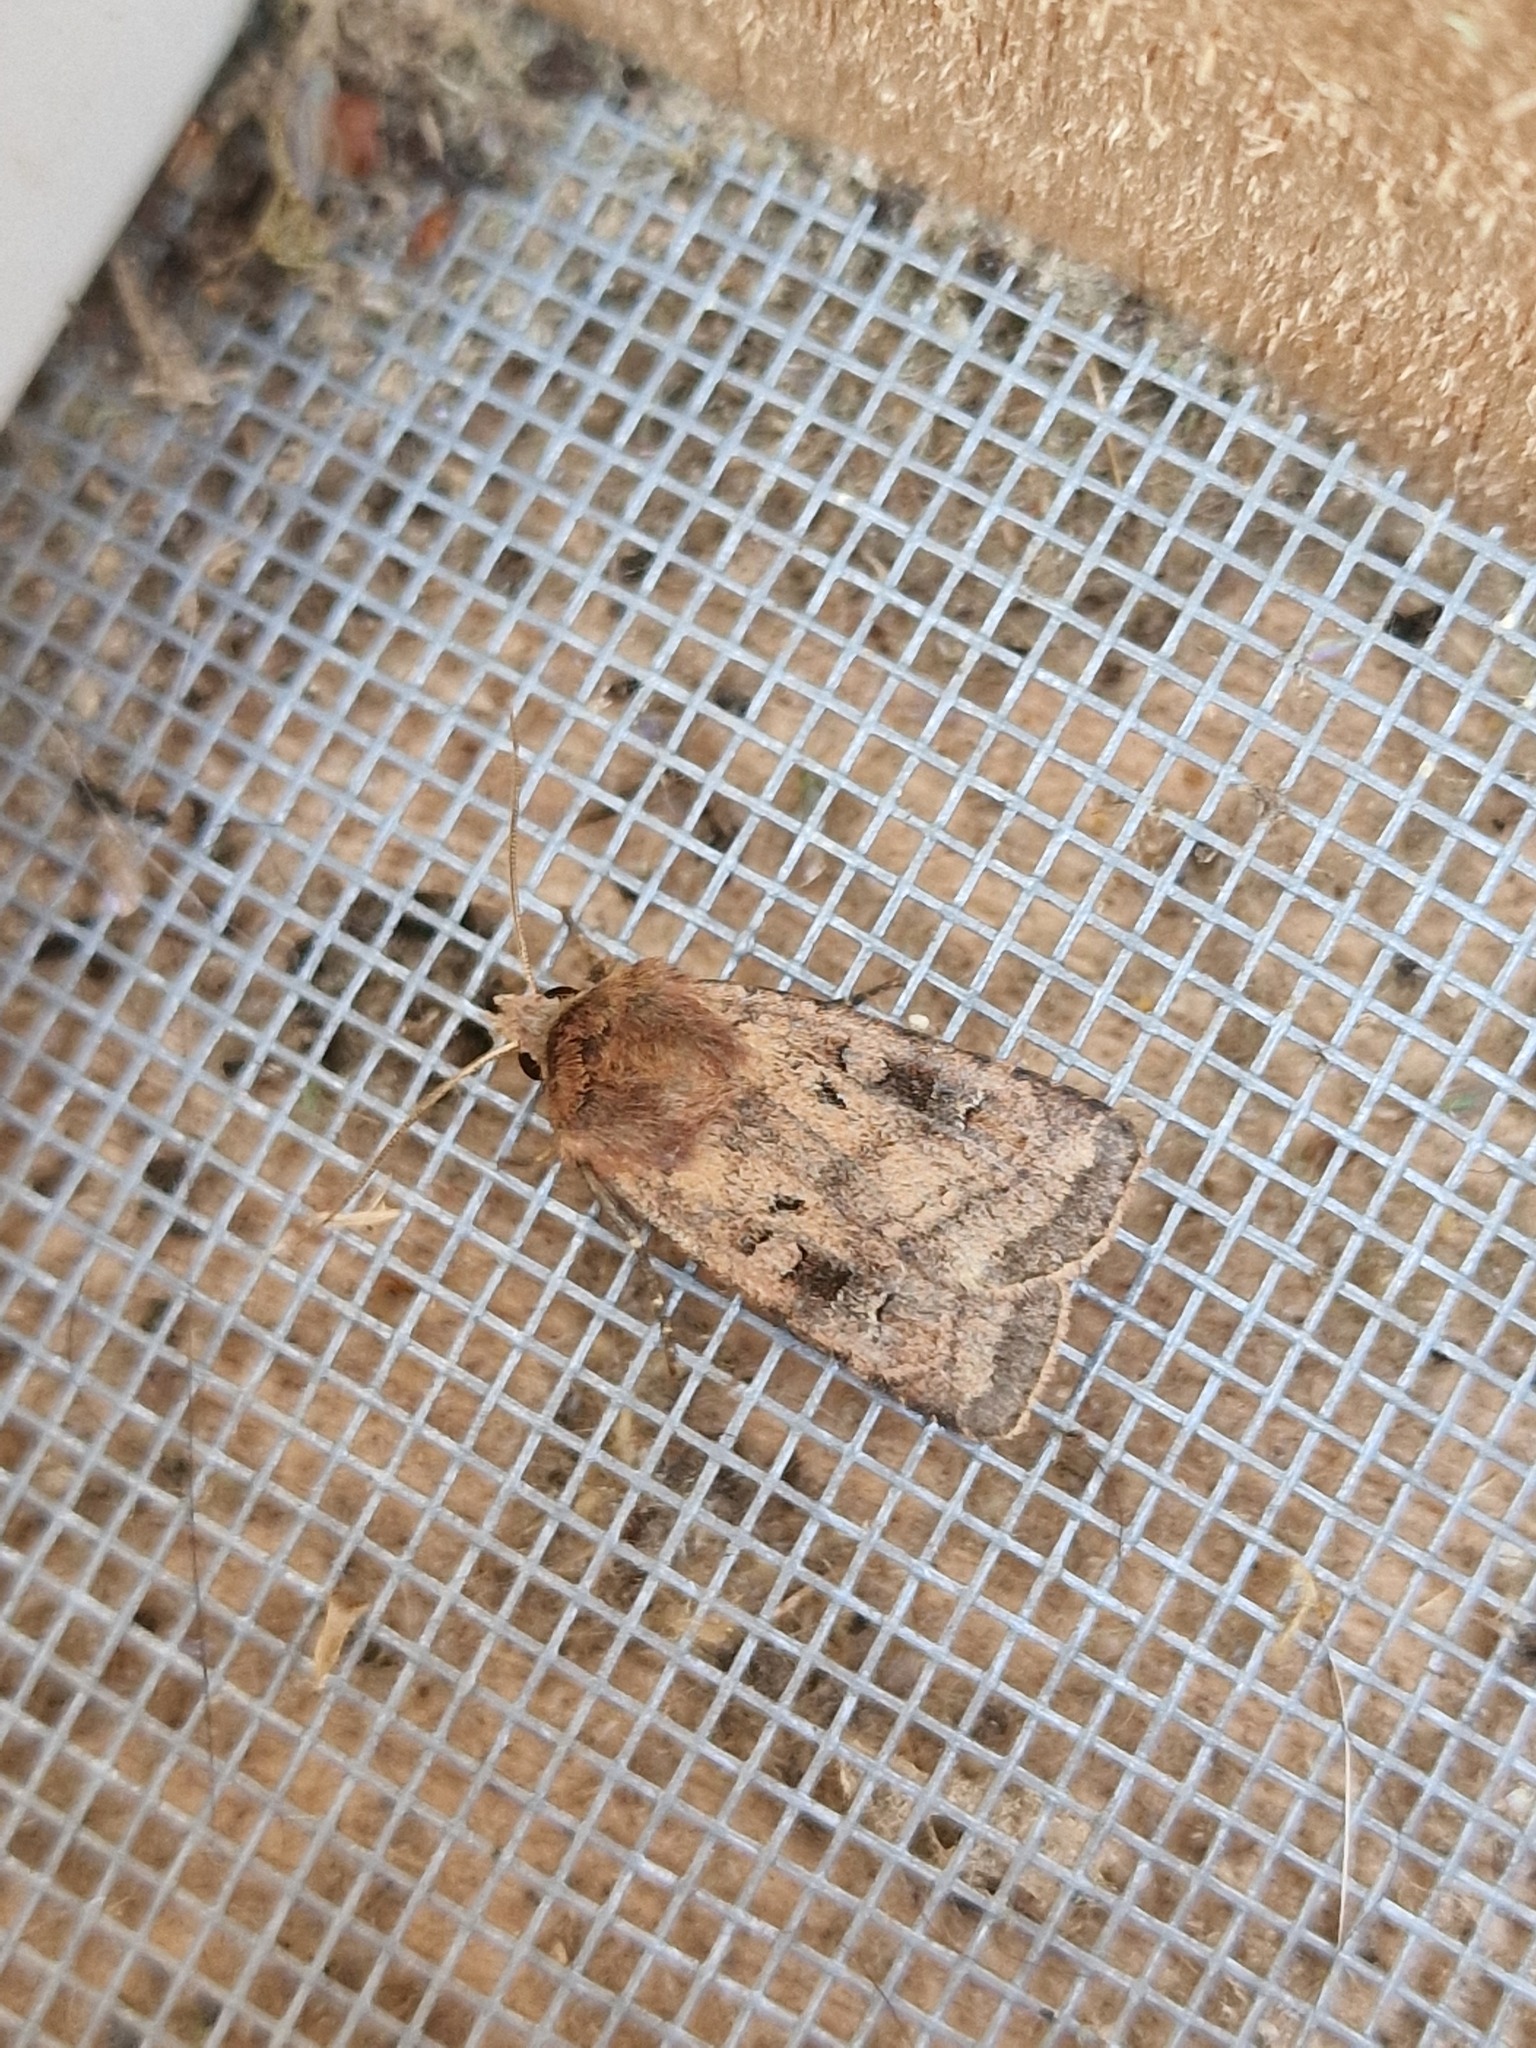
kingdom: Animalia
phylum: Arthropoda
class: Insecta
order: Lepidoptera
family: Noctuidae
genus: Diarsia
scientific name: Diarsia rubi
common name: Small square-spot
